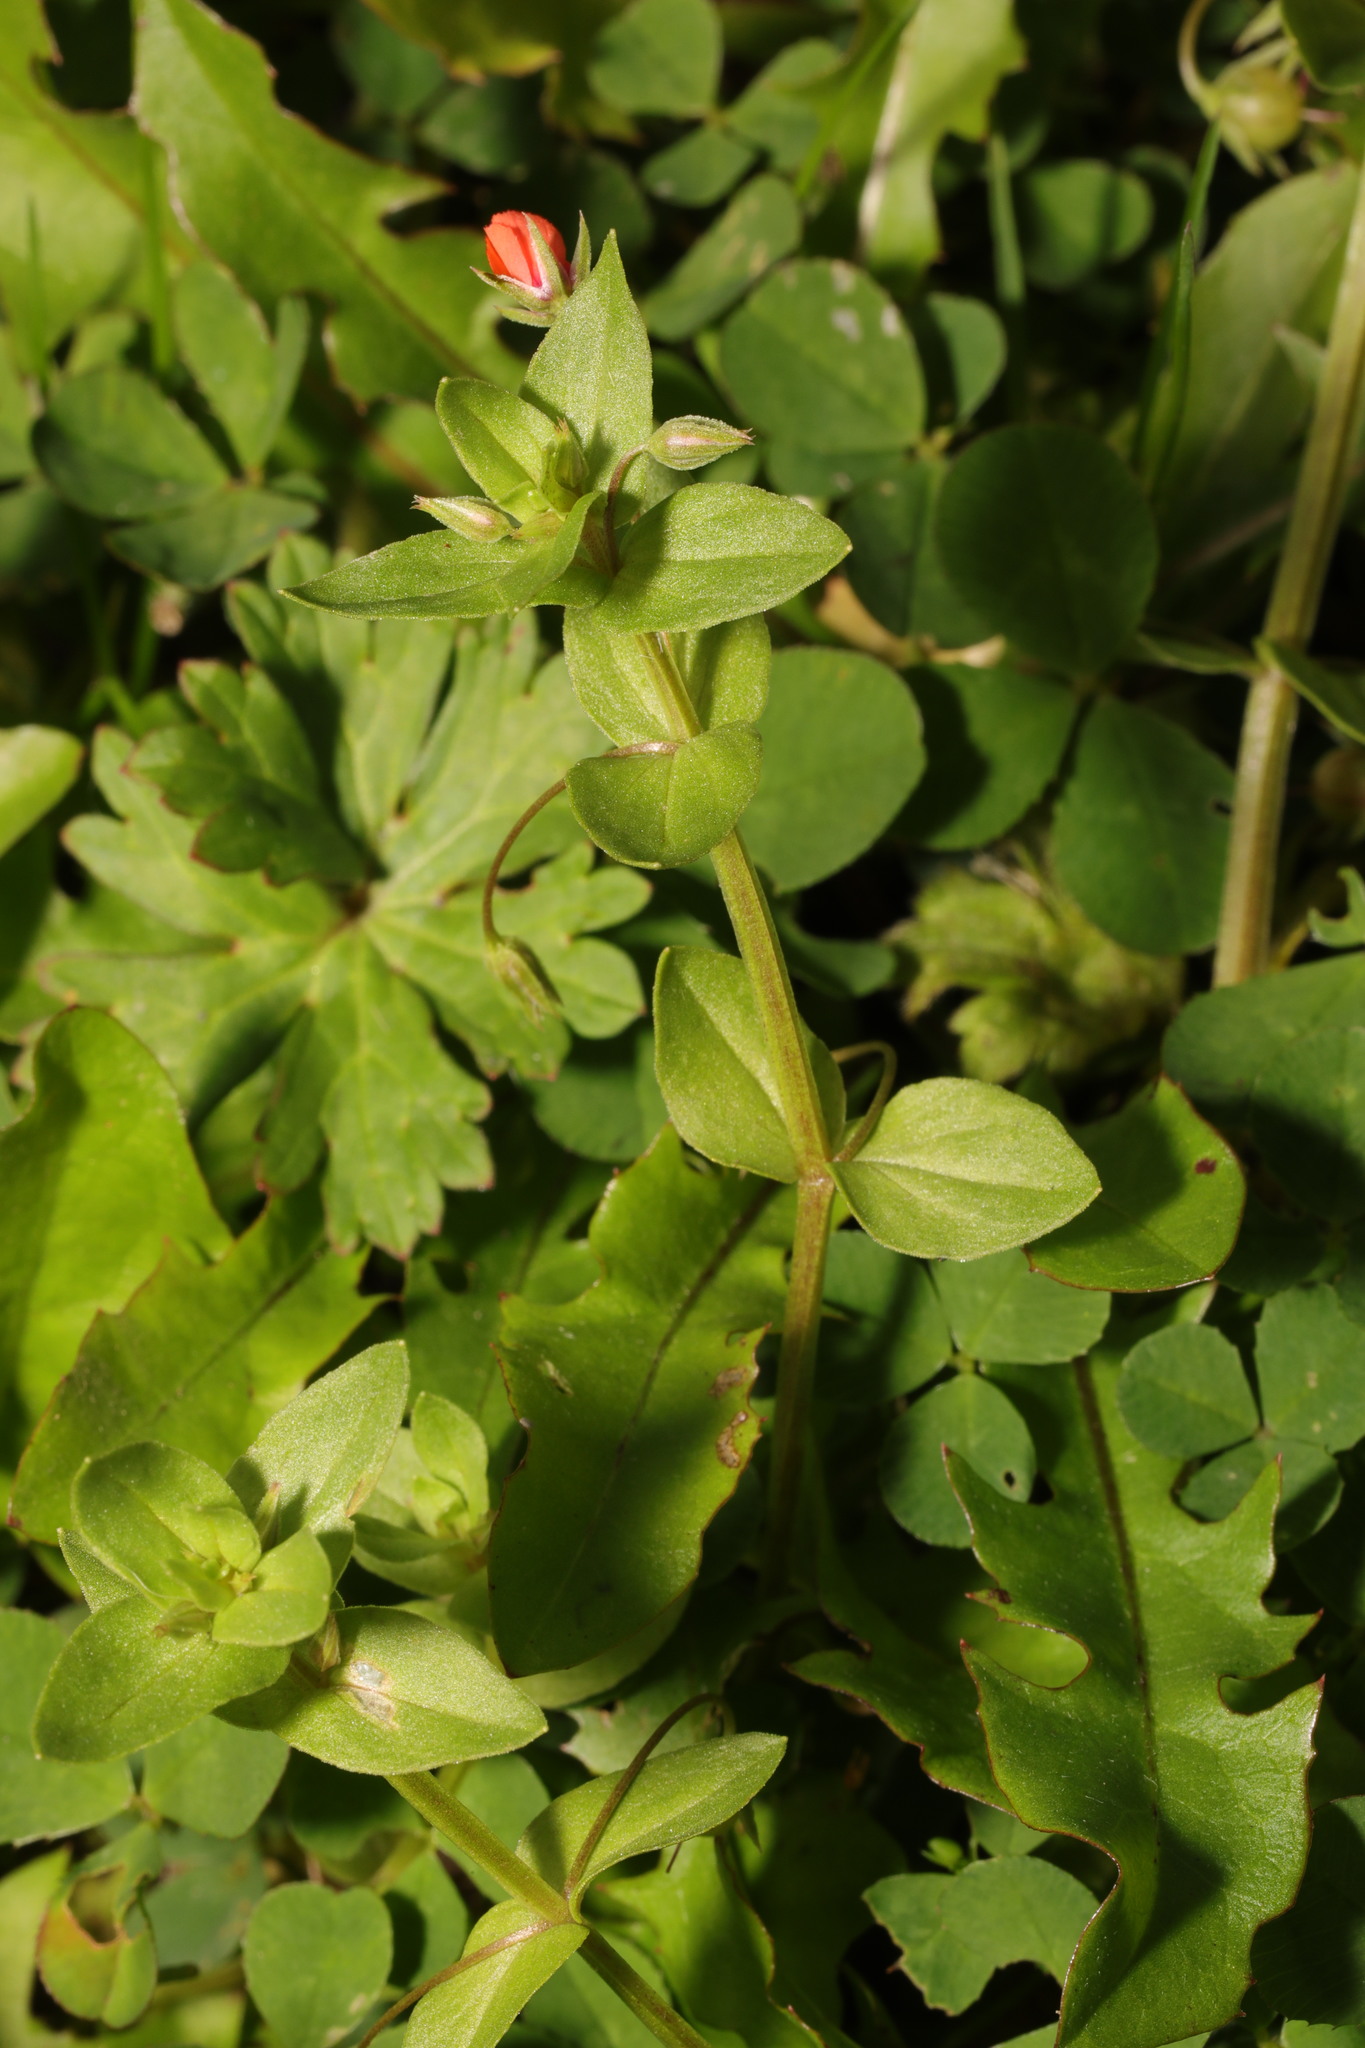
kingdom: Plantae
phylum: Tracheophyta
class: Magnoliopsida
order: Ericales
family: Primulaceae
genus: Lysimachia
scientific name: Lysimachia arvensis
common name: Scarlet pimpernel
